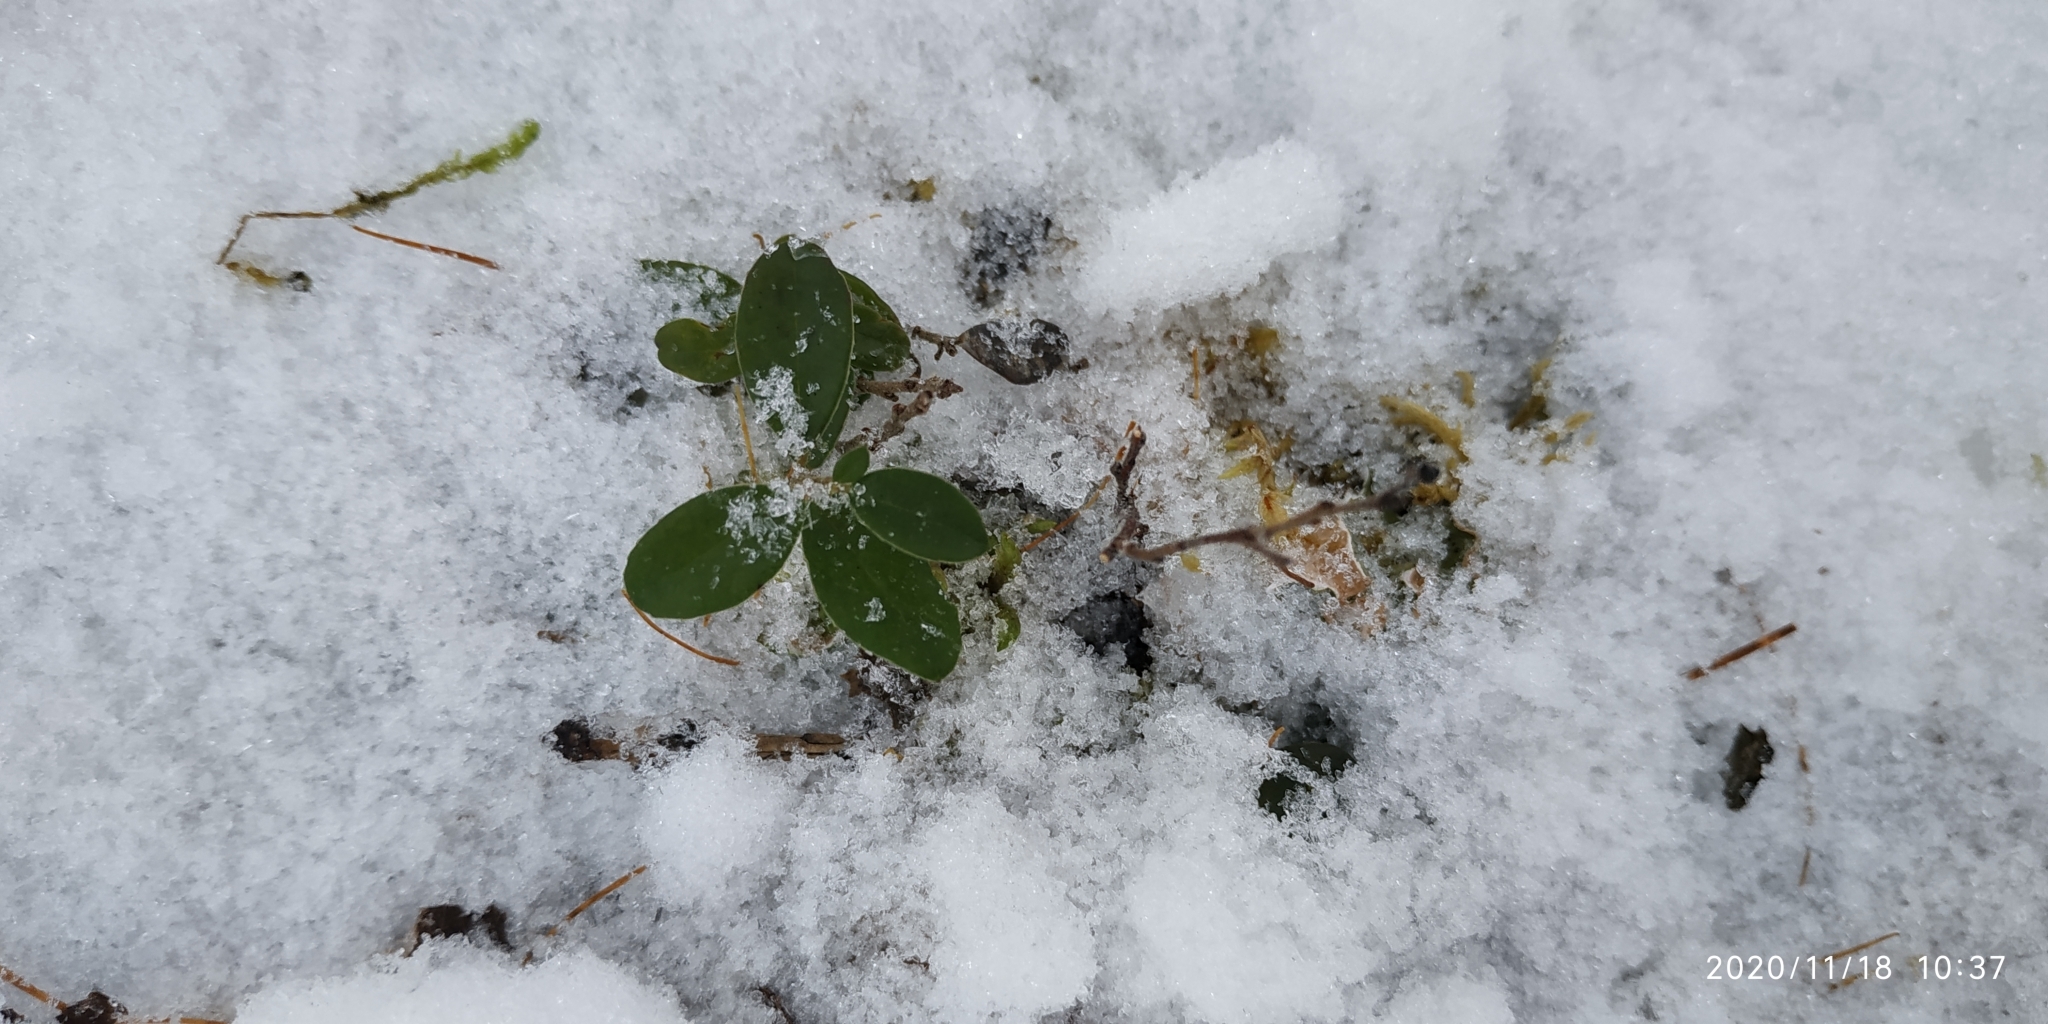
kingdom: Plantae
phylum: Tracheophyta
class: Magnoliopsida
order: Ericales
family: Ericaceae
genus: Vaccinium
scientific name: Vaccinium vitis-idaea
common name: Cowberry
